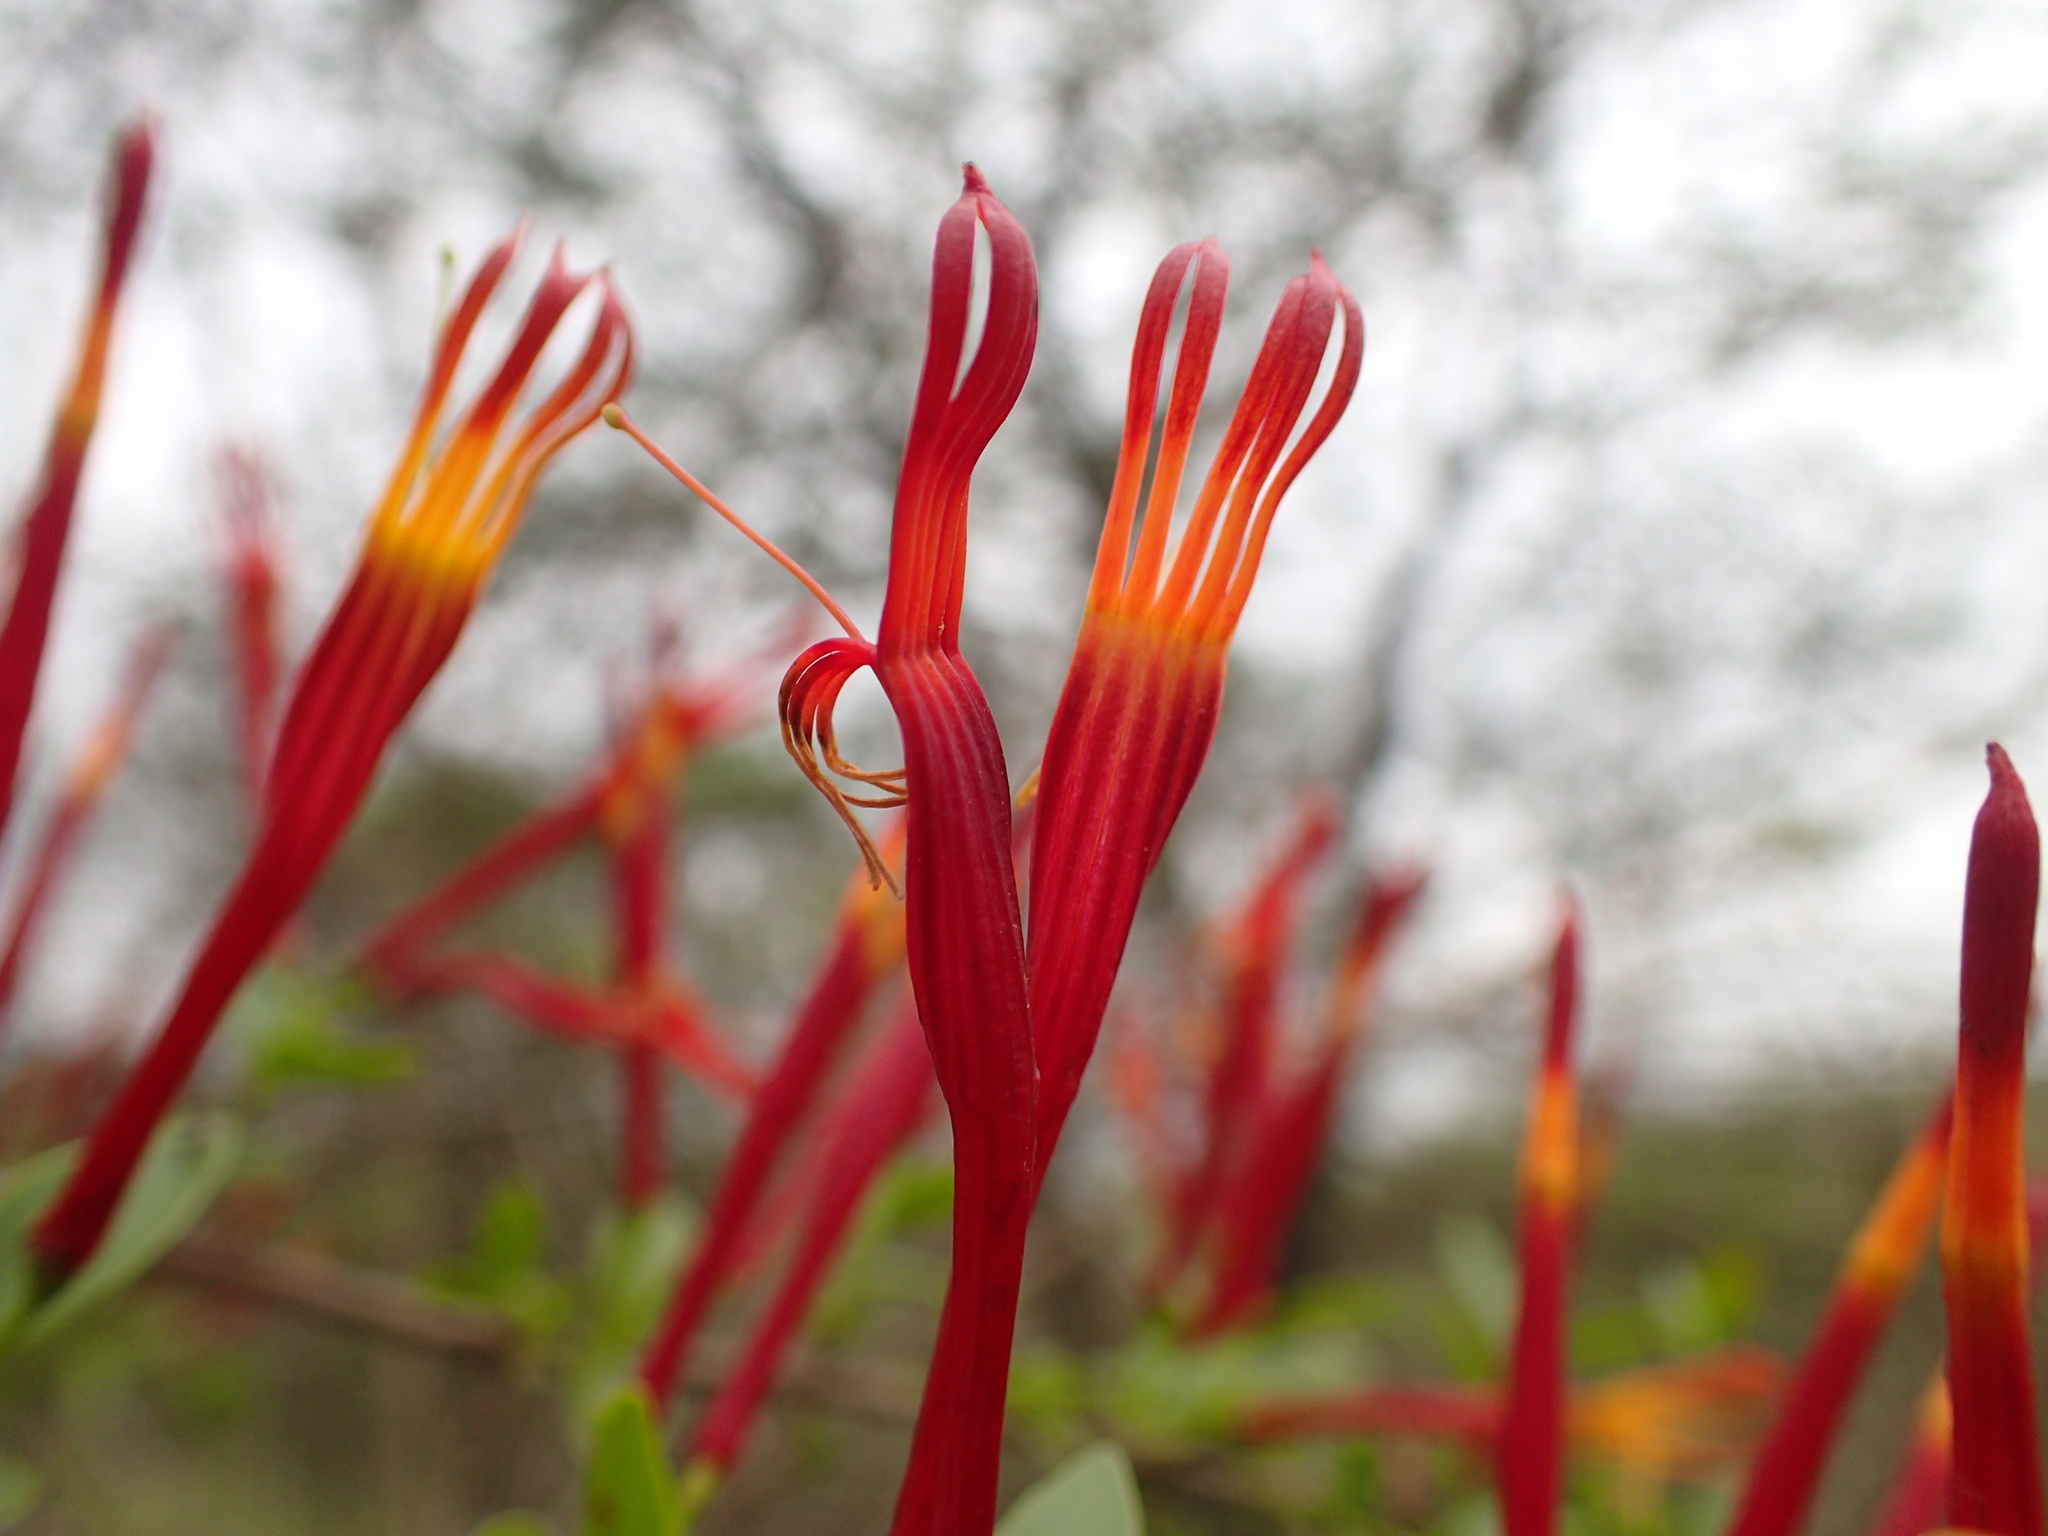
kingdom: Plantae
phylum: Tracheophyta
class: Magnoliopsida
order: Santalales
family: Loranthaceae
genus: Agelanthus
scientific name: Agelanthus gracilis
